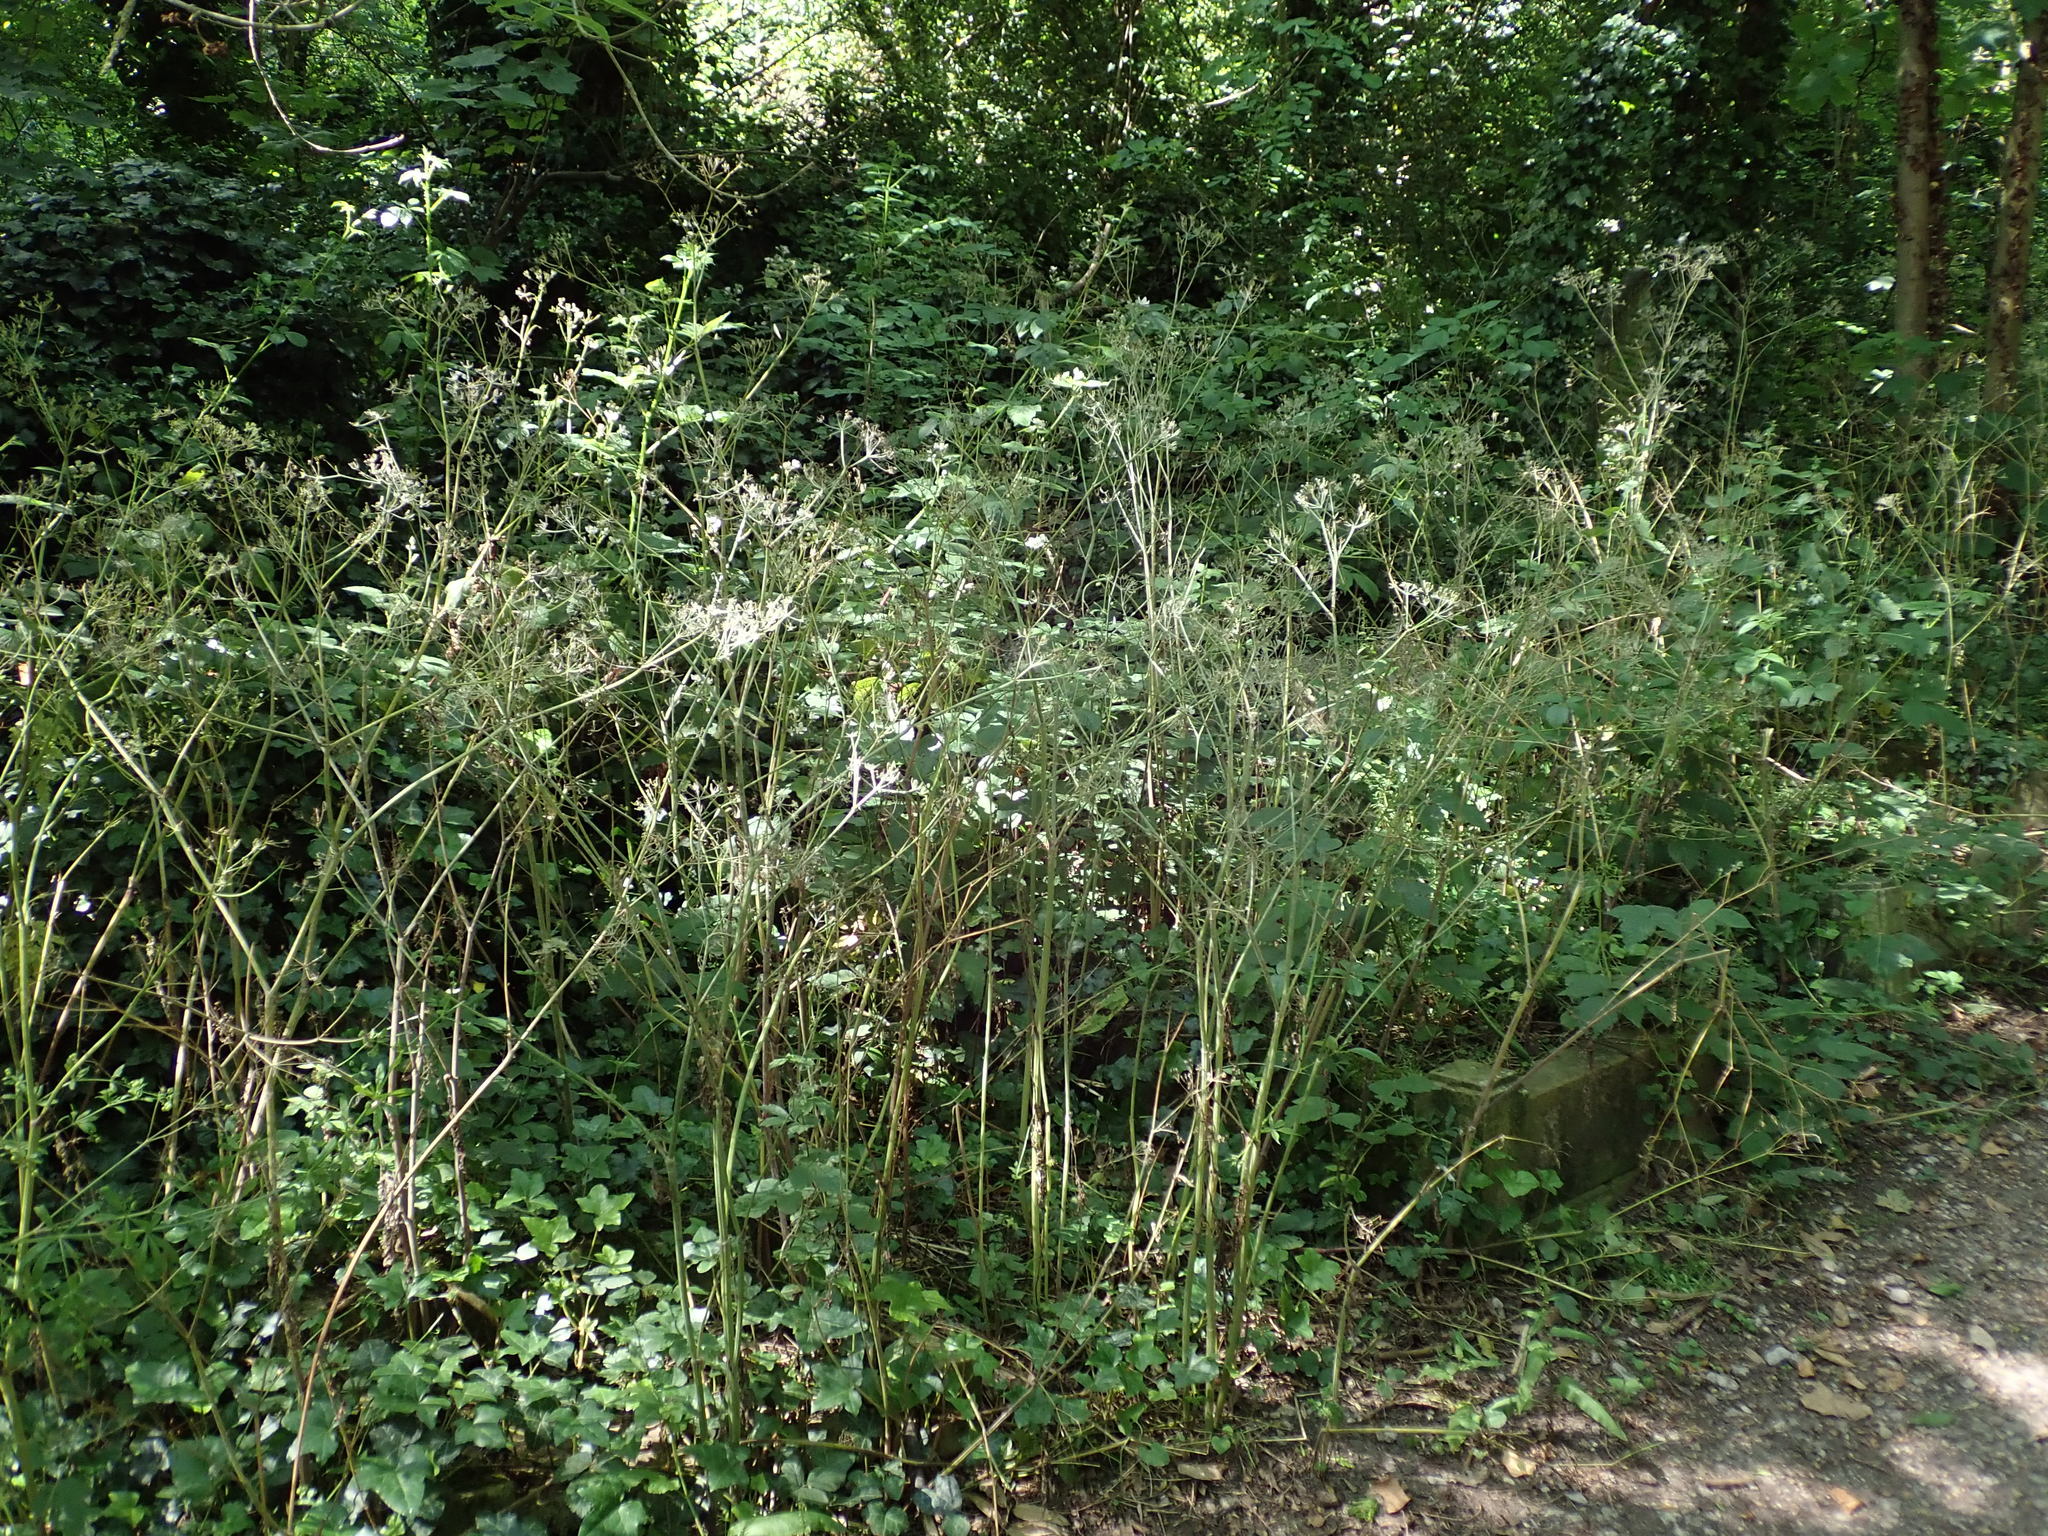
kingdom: Plantae
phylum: Tracheophyta
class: Magnoliopsida
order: Apiales
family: Apiaceae
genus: Anthriscus
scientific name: Anthriscus sylvestris
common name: Cow parsley
